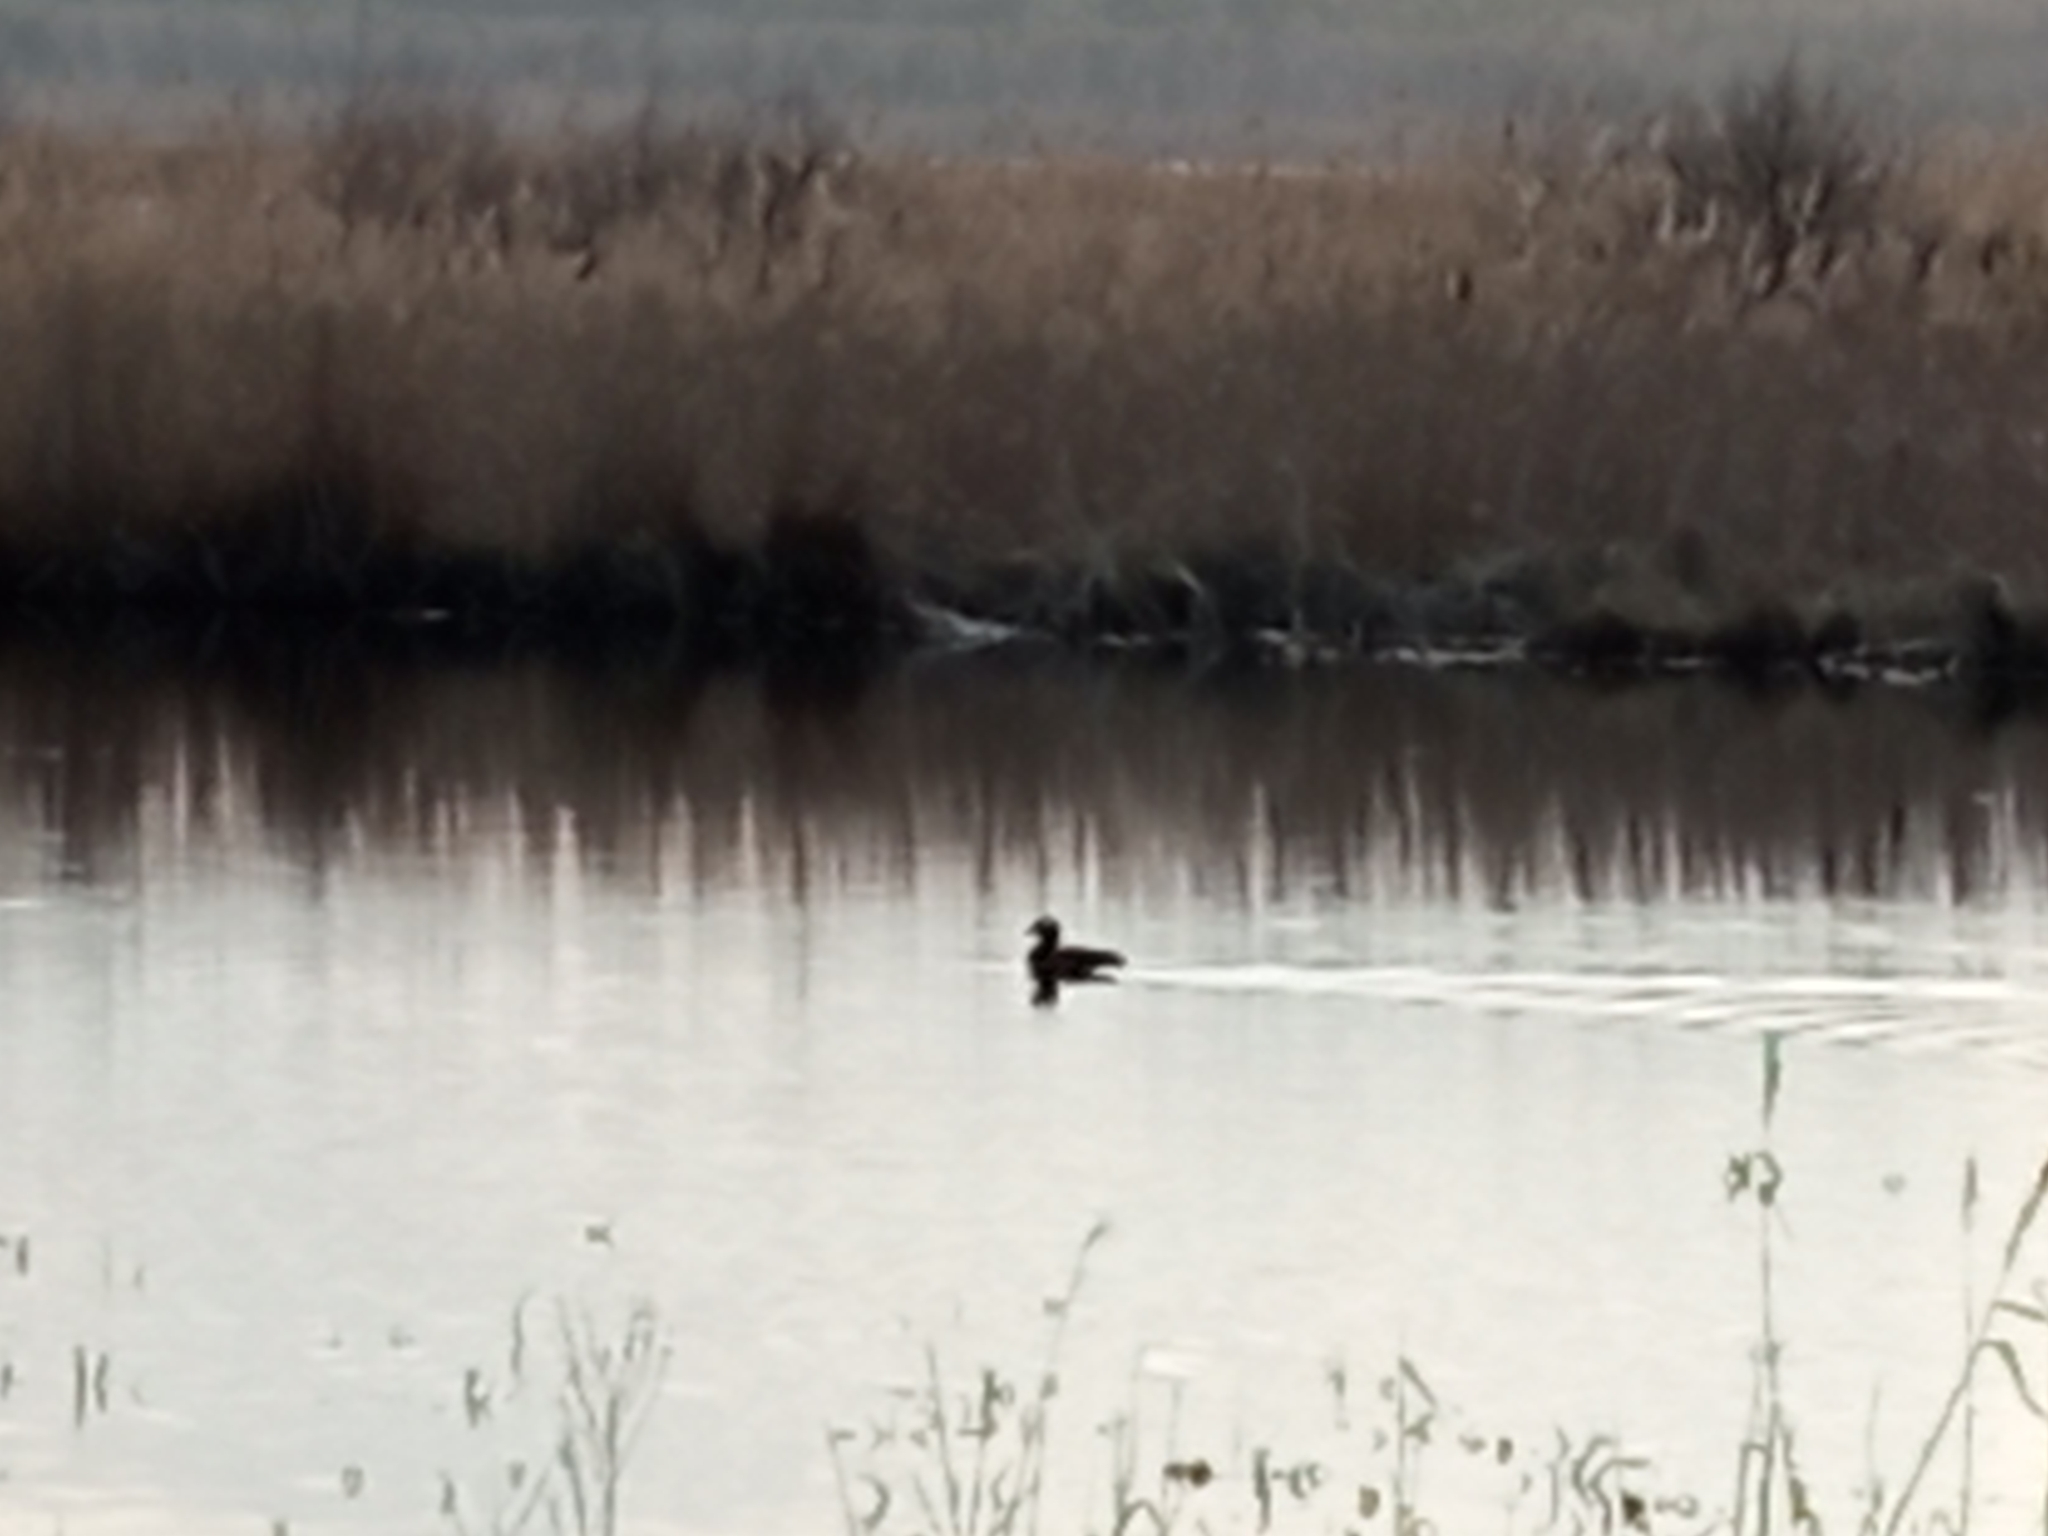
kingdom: Animalia
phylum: Chordata
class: Aves
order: Gruiformes
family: Rallidae
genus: Fulica
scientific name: Fulica atra
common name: Eurasian coot
